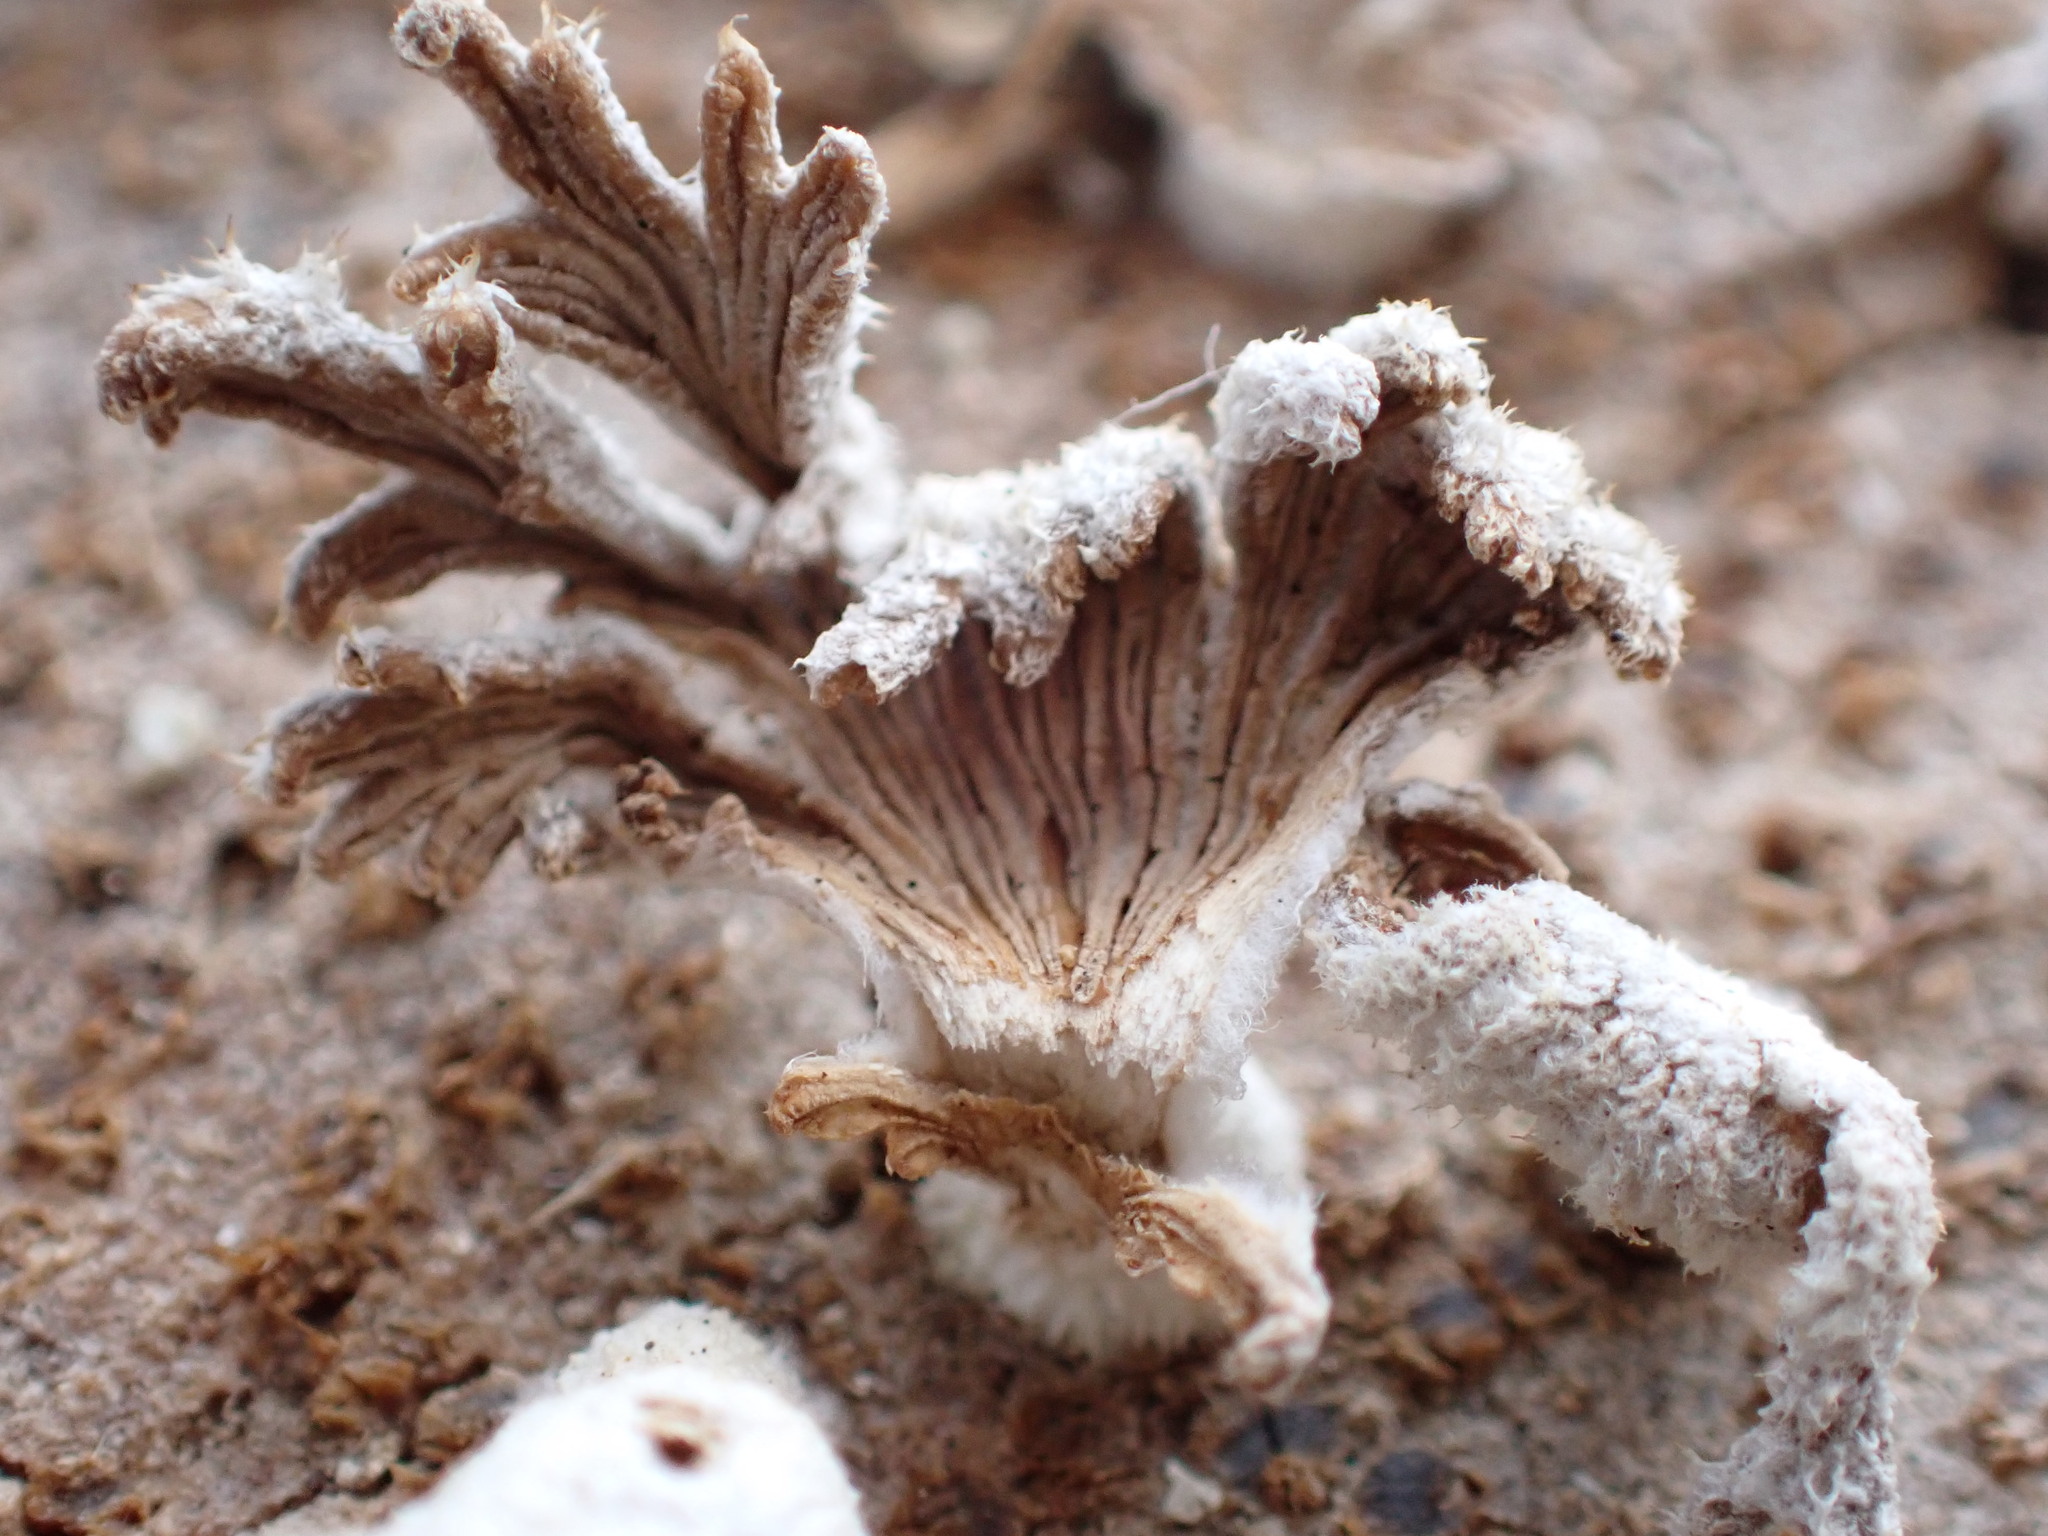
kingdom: Fungi
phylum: Basidiomycota
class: Agaricomycetes
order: Agaricales
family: Schizophyllaceae
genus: Schizophyllum
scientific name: Schizophyllum commune
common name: Common porecrust
